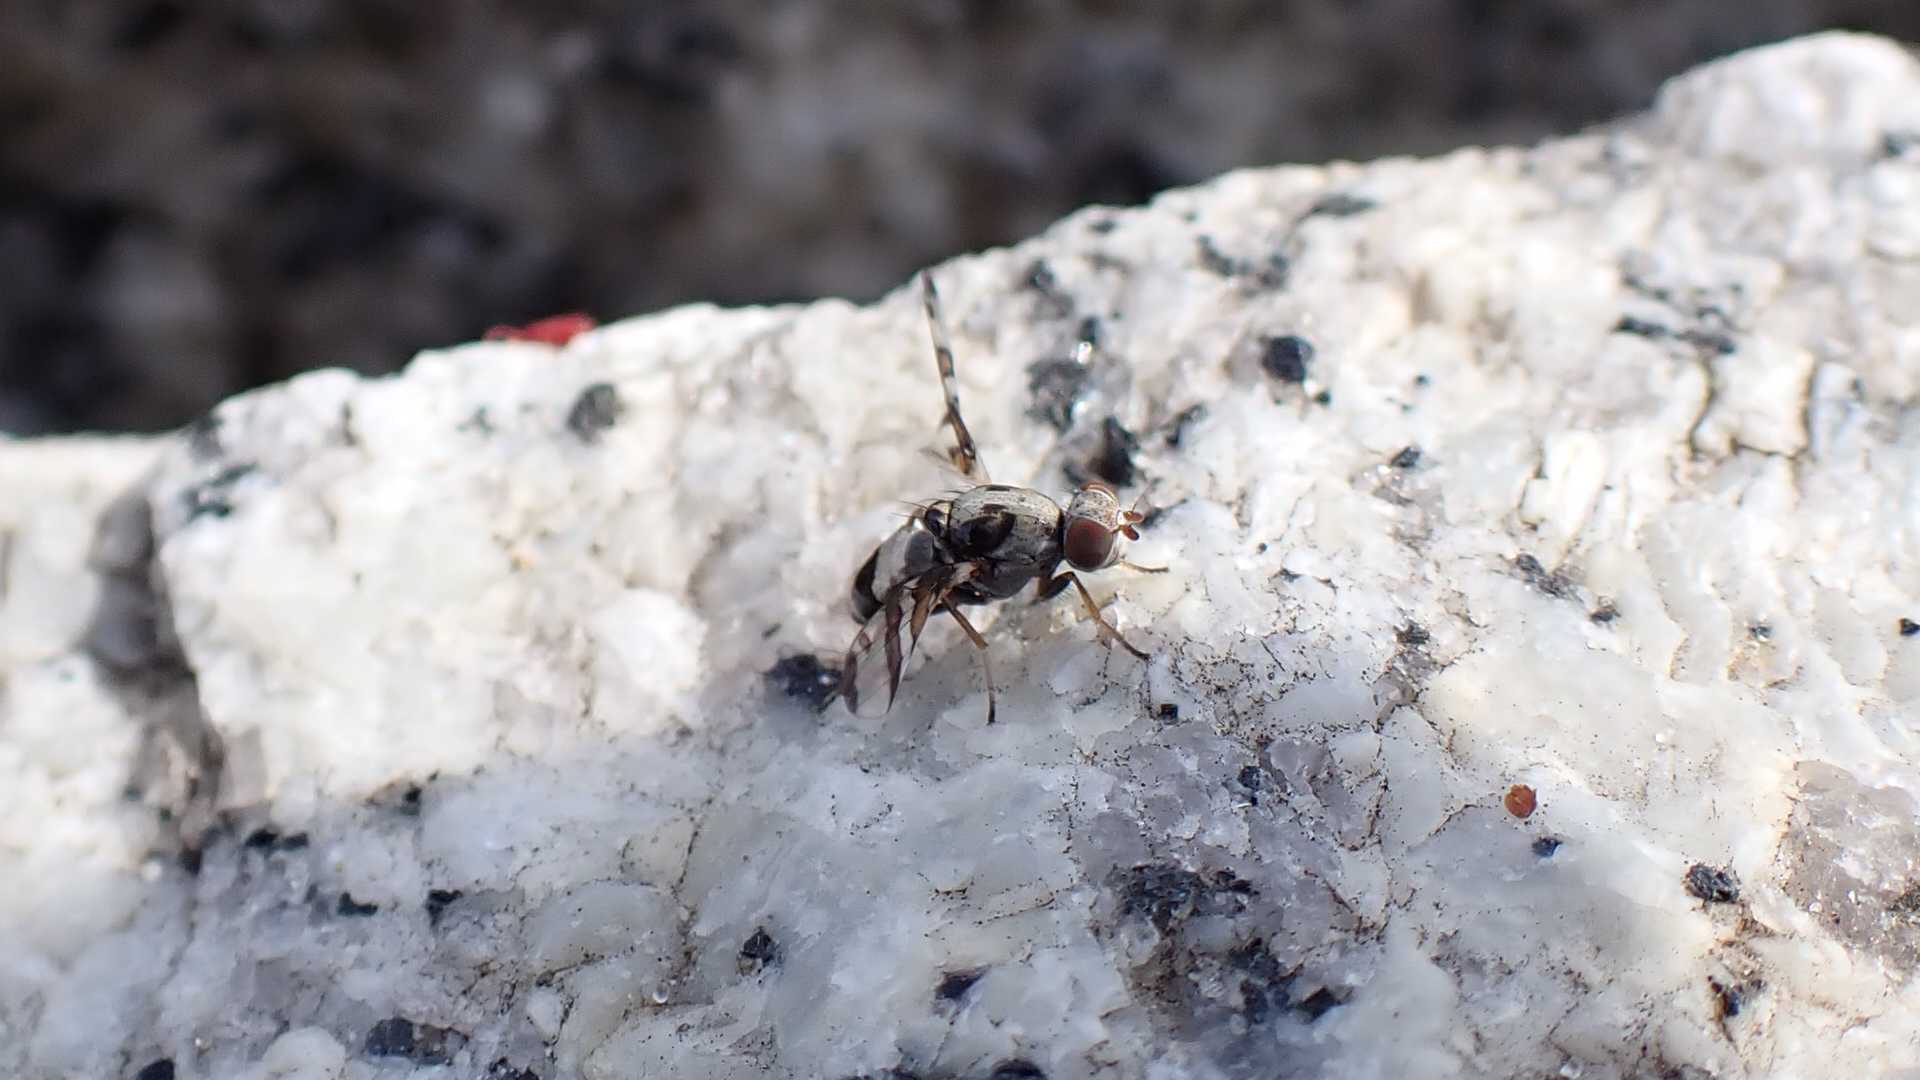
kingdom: Animalia
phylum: Arthropoda
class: Insecta
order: Diptera
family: Ulidiidae
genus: Myennis
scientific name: Myennis octopunctata
